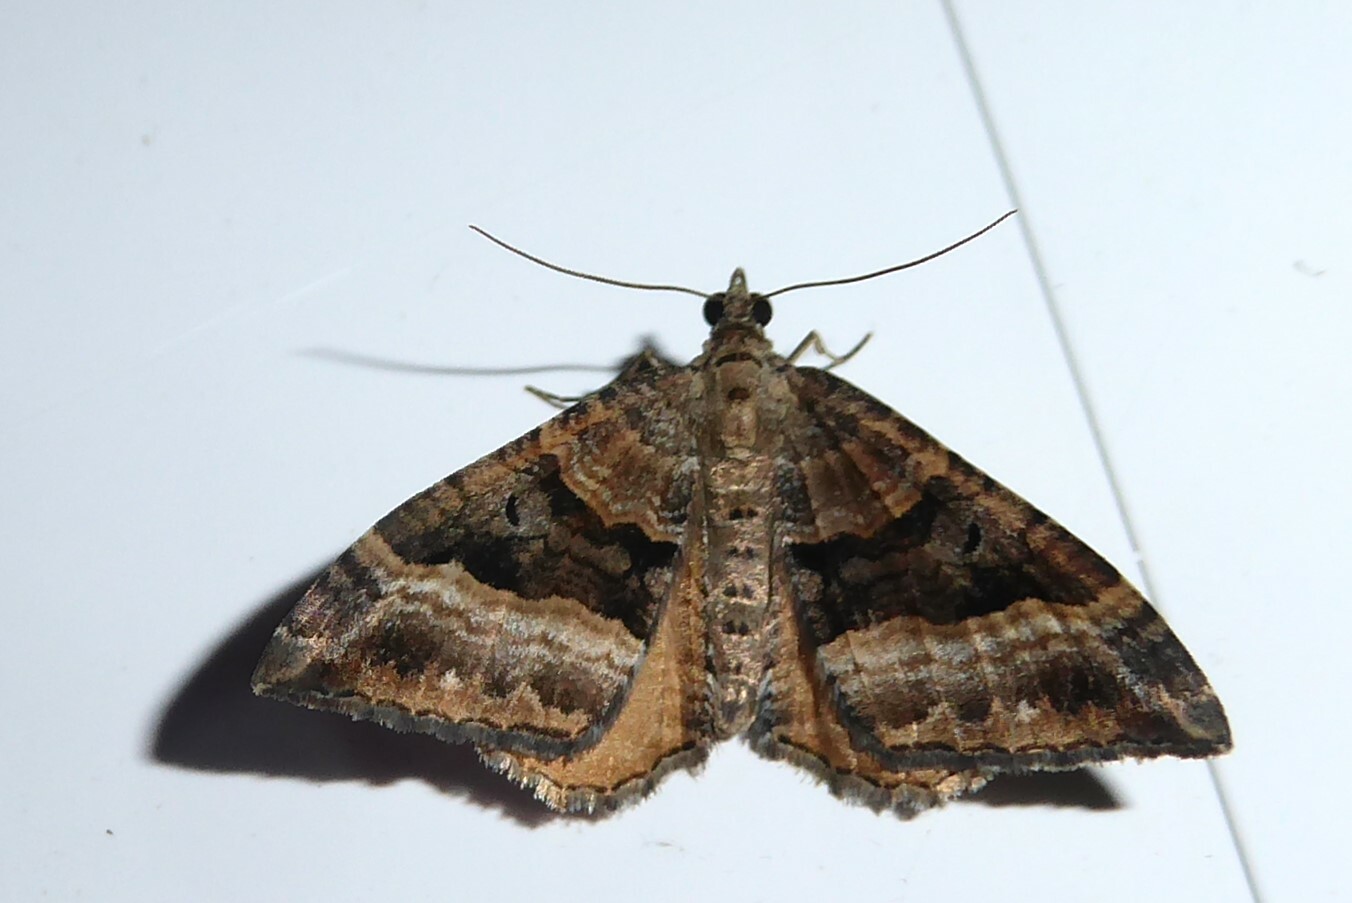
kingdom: Animalia
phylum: Arthropoda
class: Insecta
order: Lepidoptera
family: Geometridae
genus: Hydriomena
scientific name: Hydriomena deltoidata
